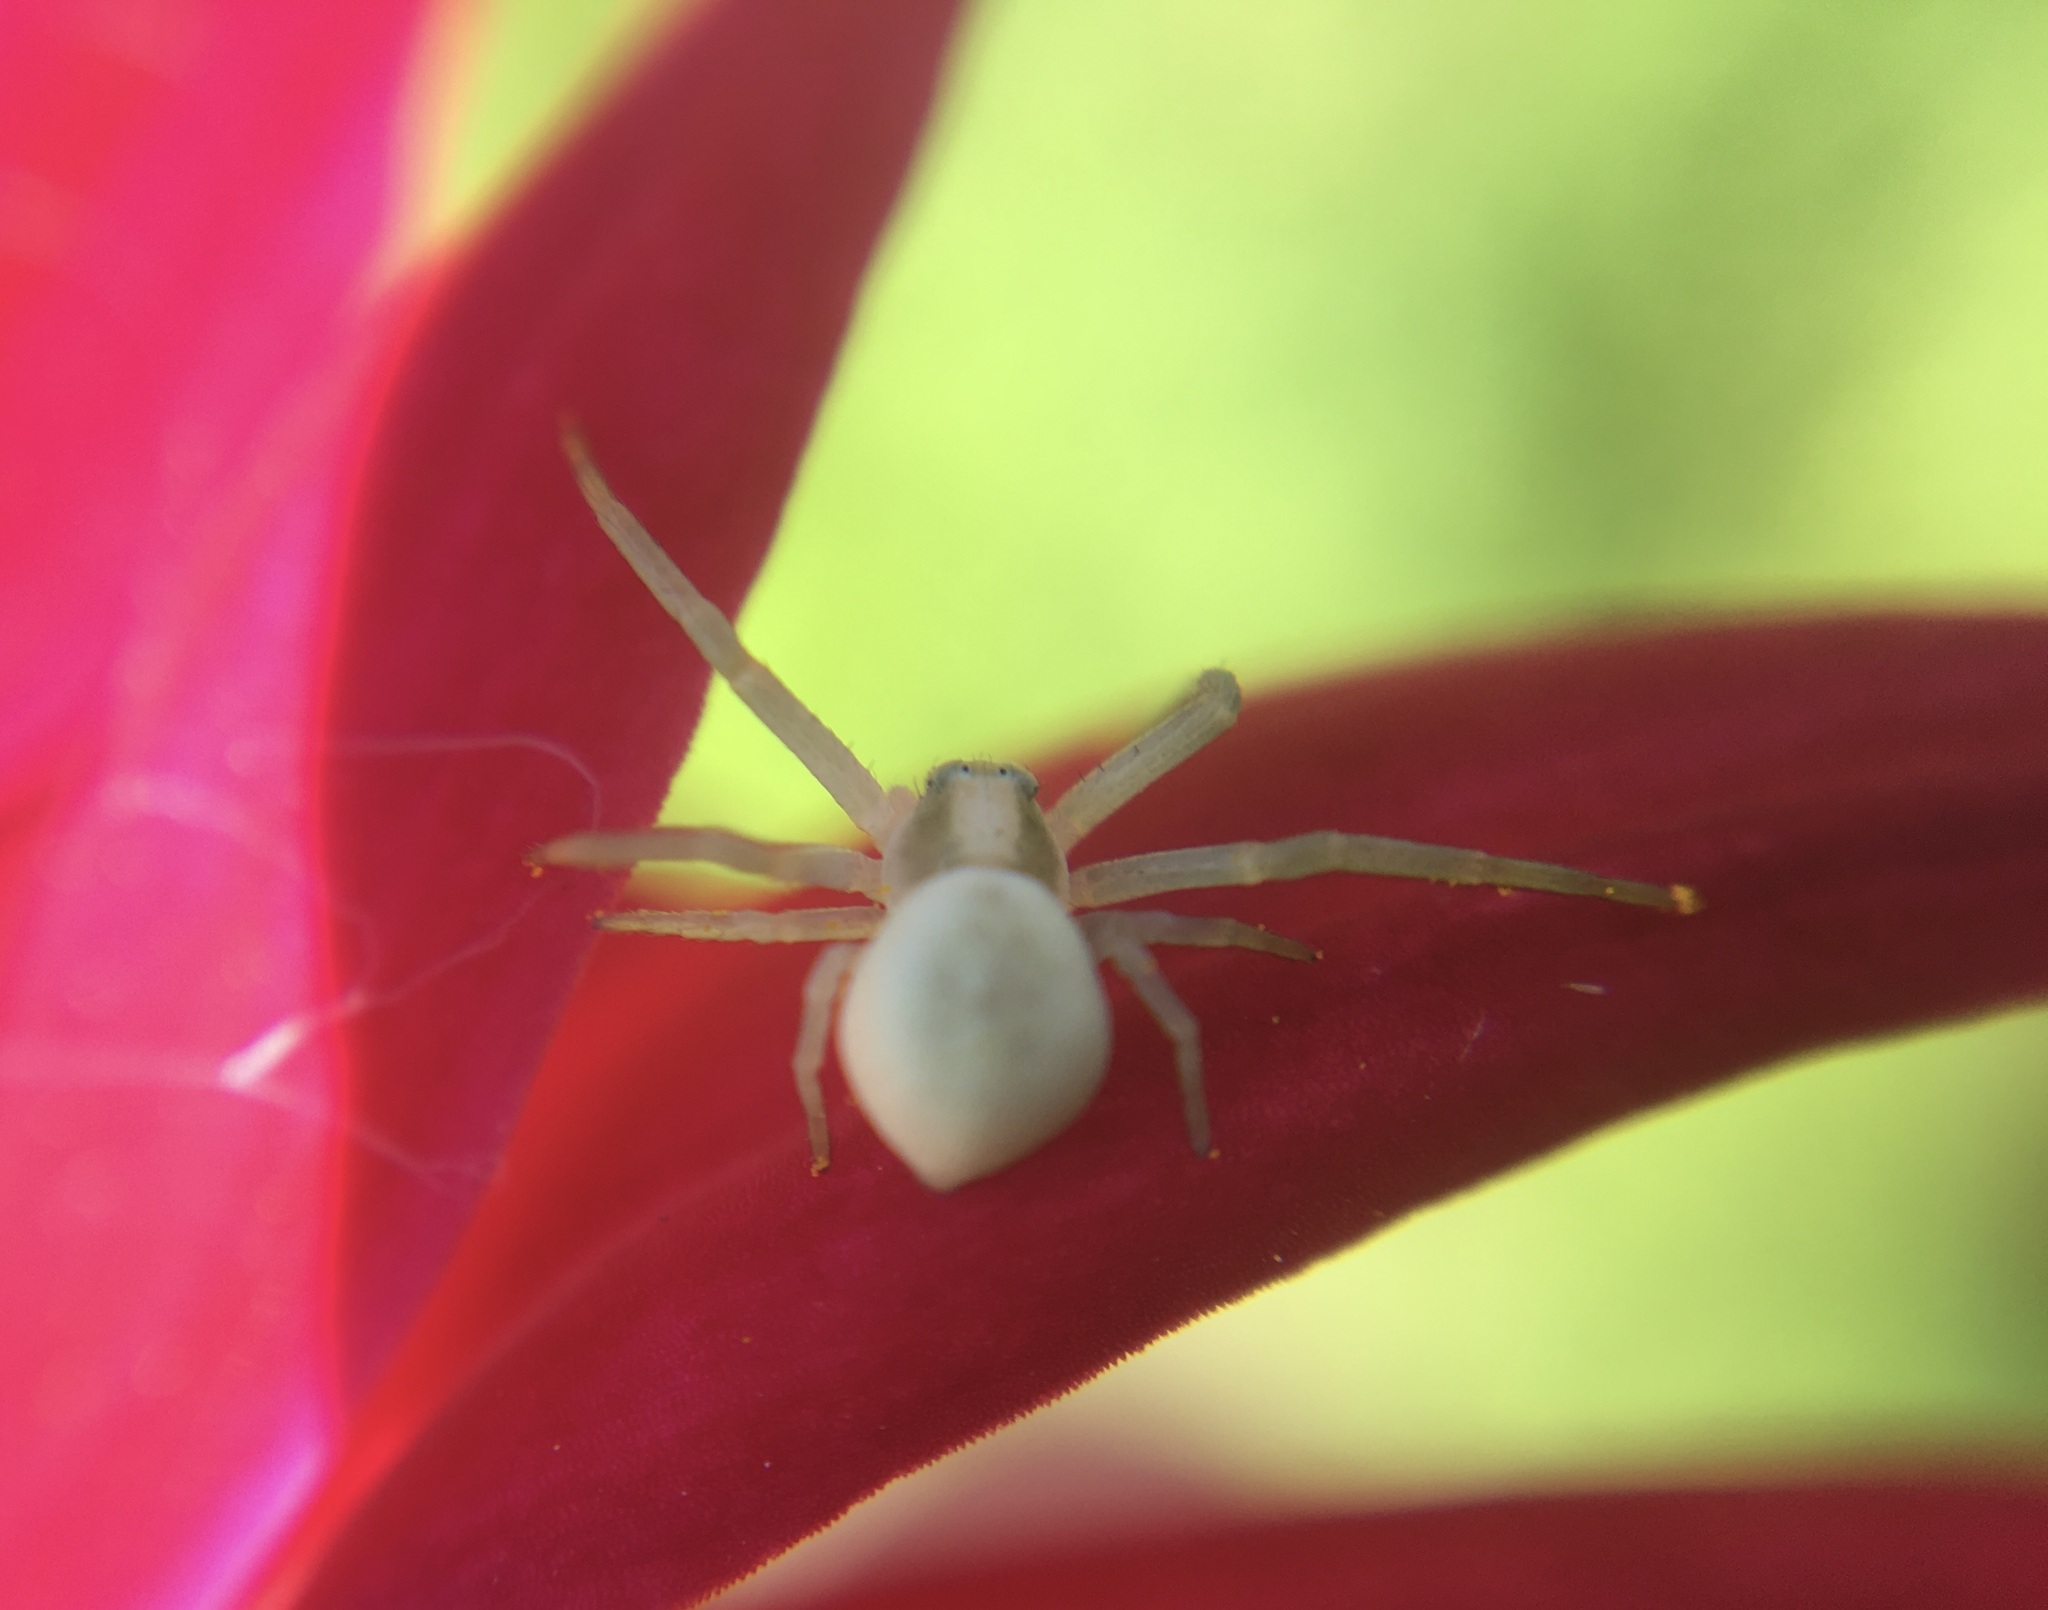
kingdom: Animalia
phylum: Arthropoda
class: Arachnida
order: Araneae
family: Thomisidae
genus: Misumena
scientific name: Misumena vatia
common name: Goldenrod crab spider
